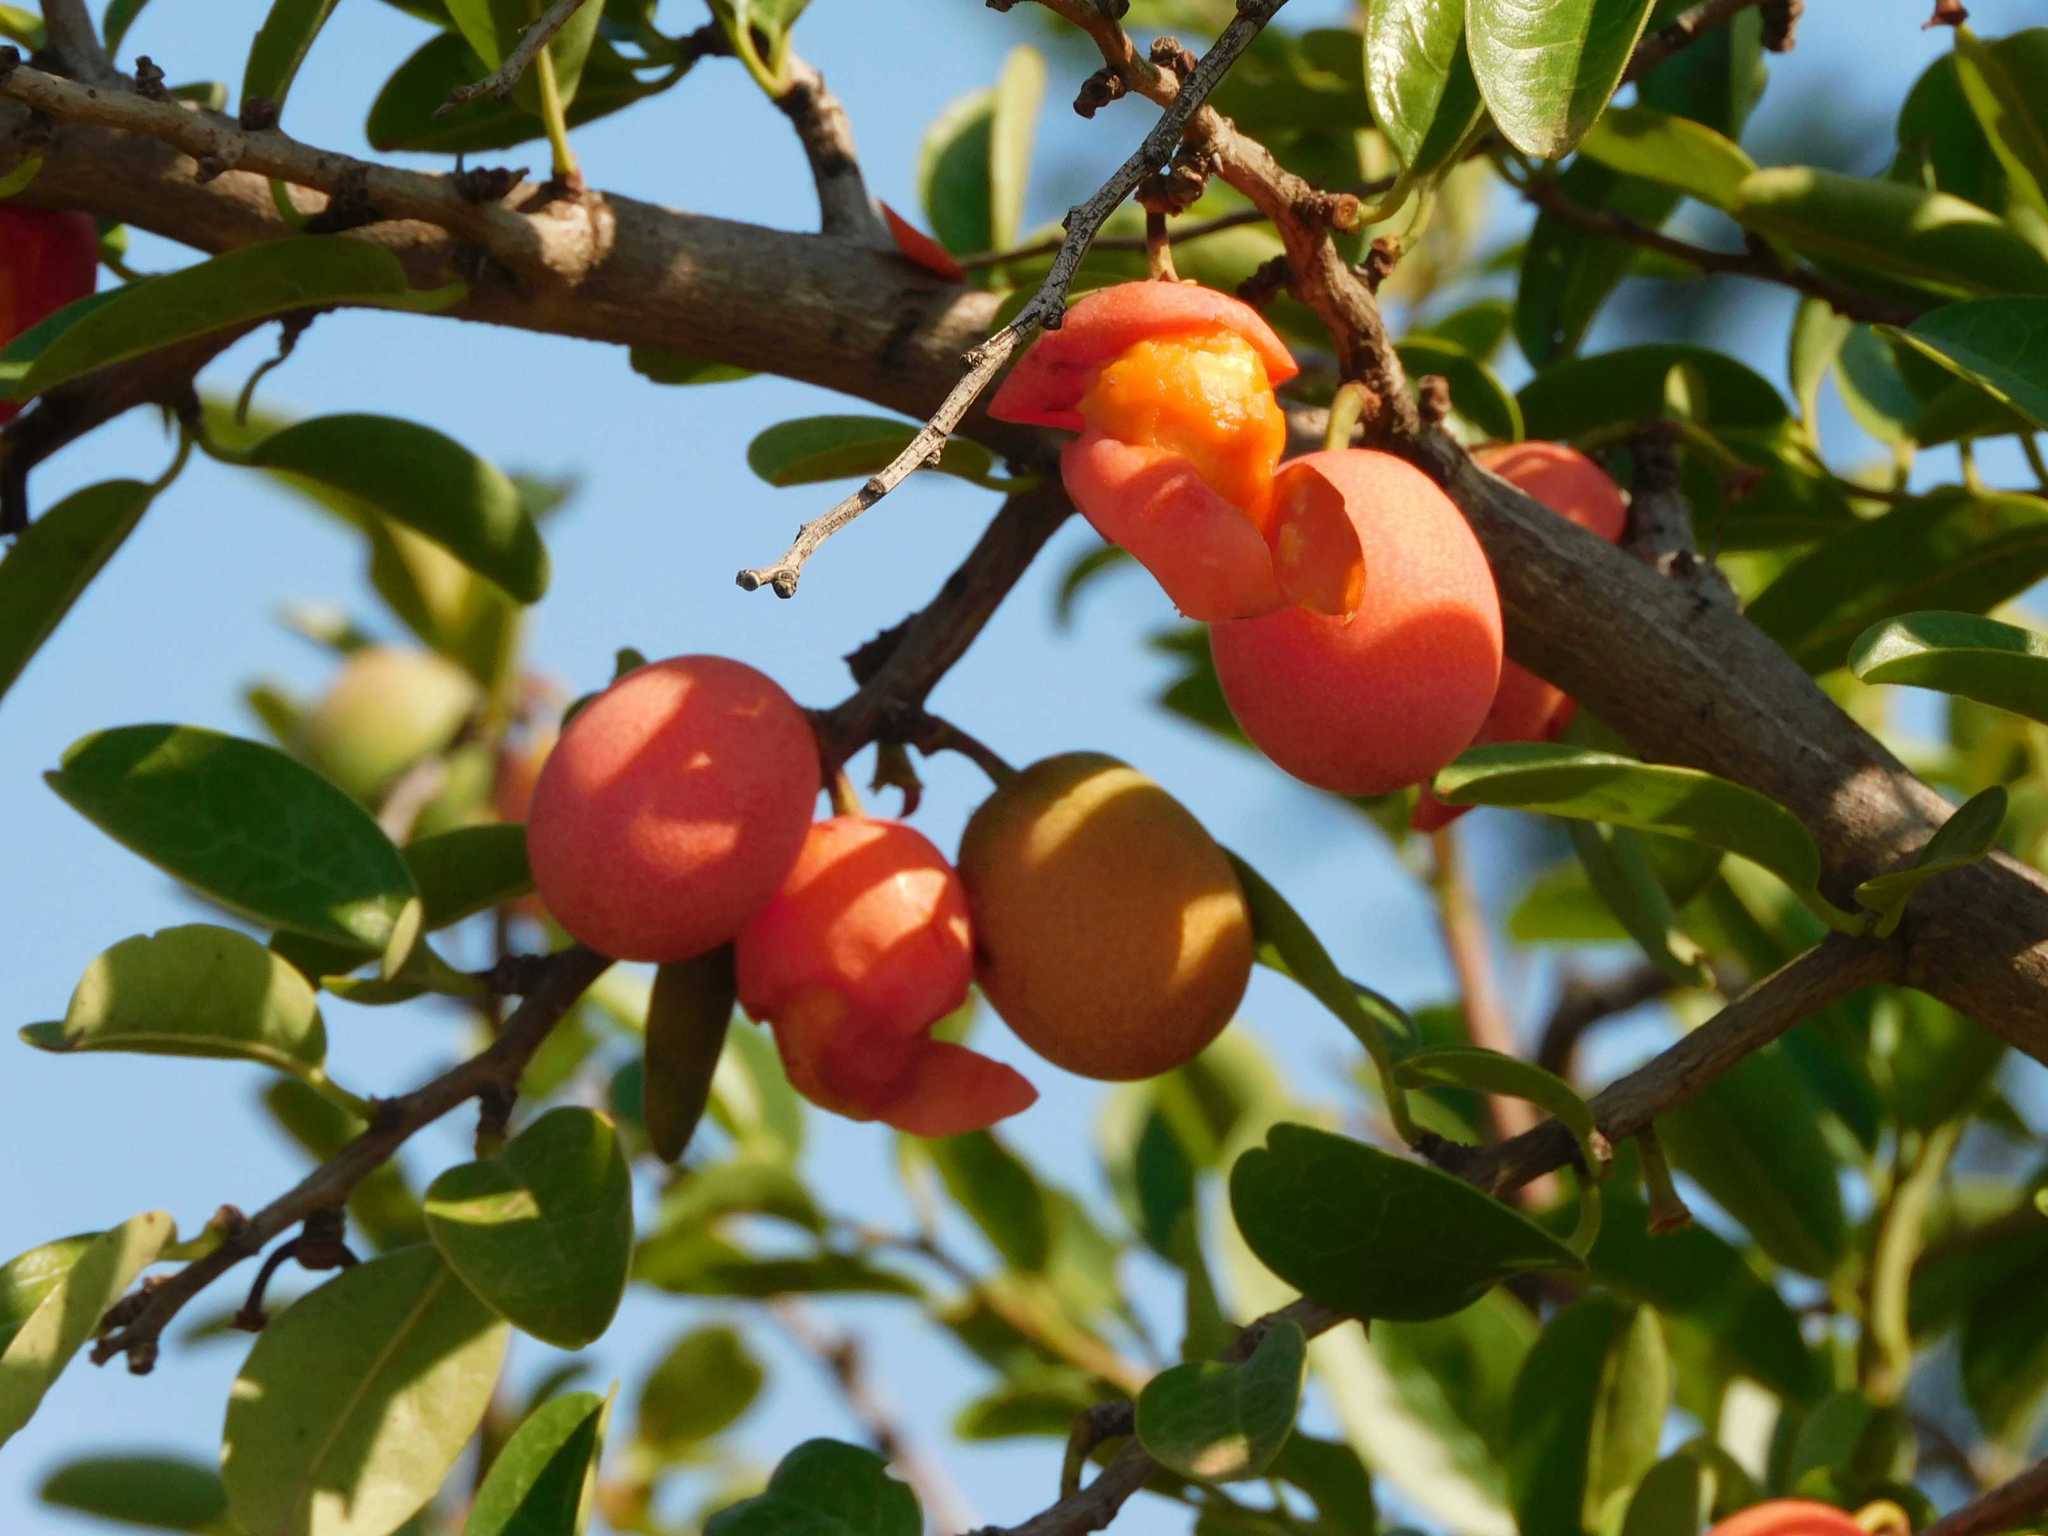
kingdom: Plantae
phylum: Tracheophyta
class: Magnoliopsida
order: Santalales
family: Ximeniaceae
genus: Ximenia
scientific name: Ximenia caffra
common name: Large sourplum
